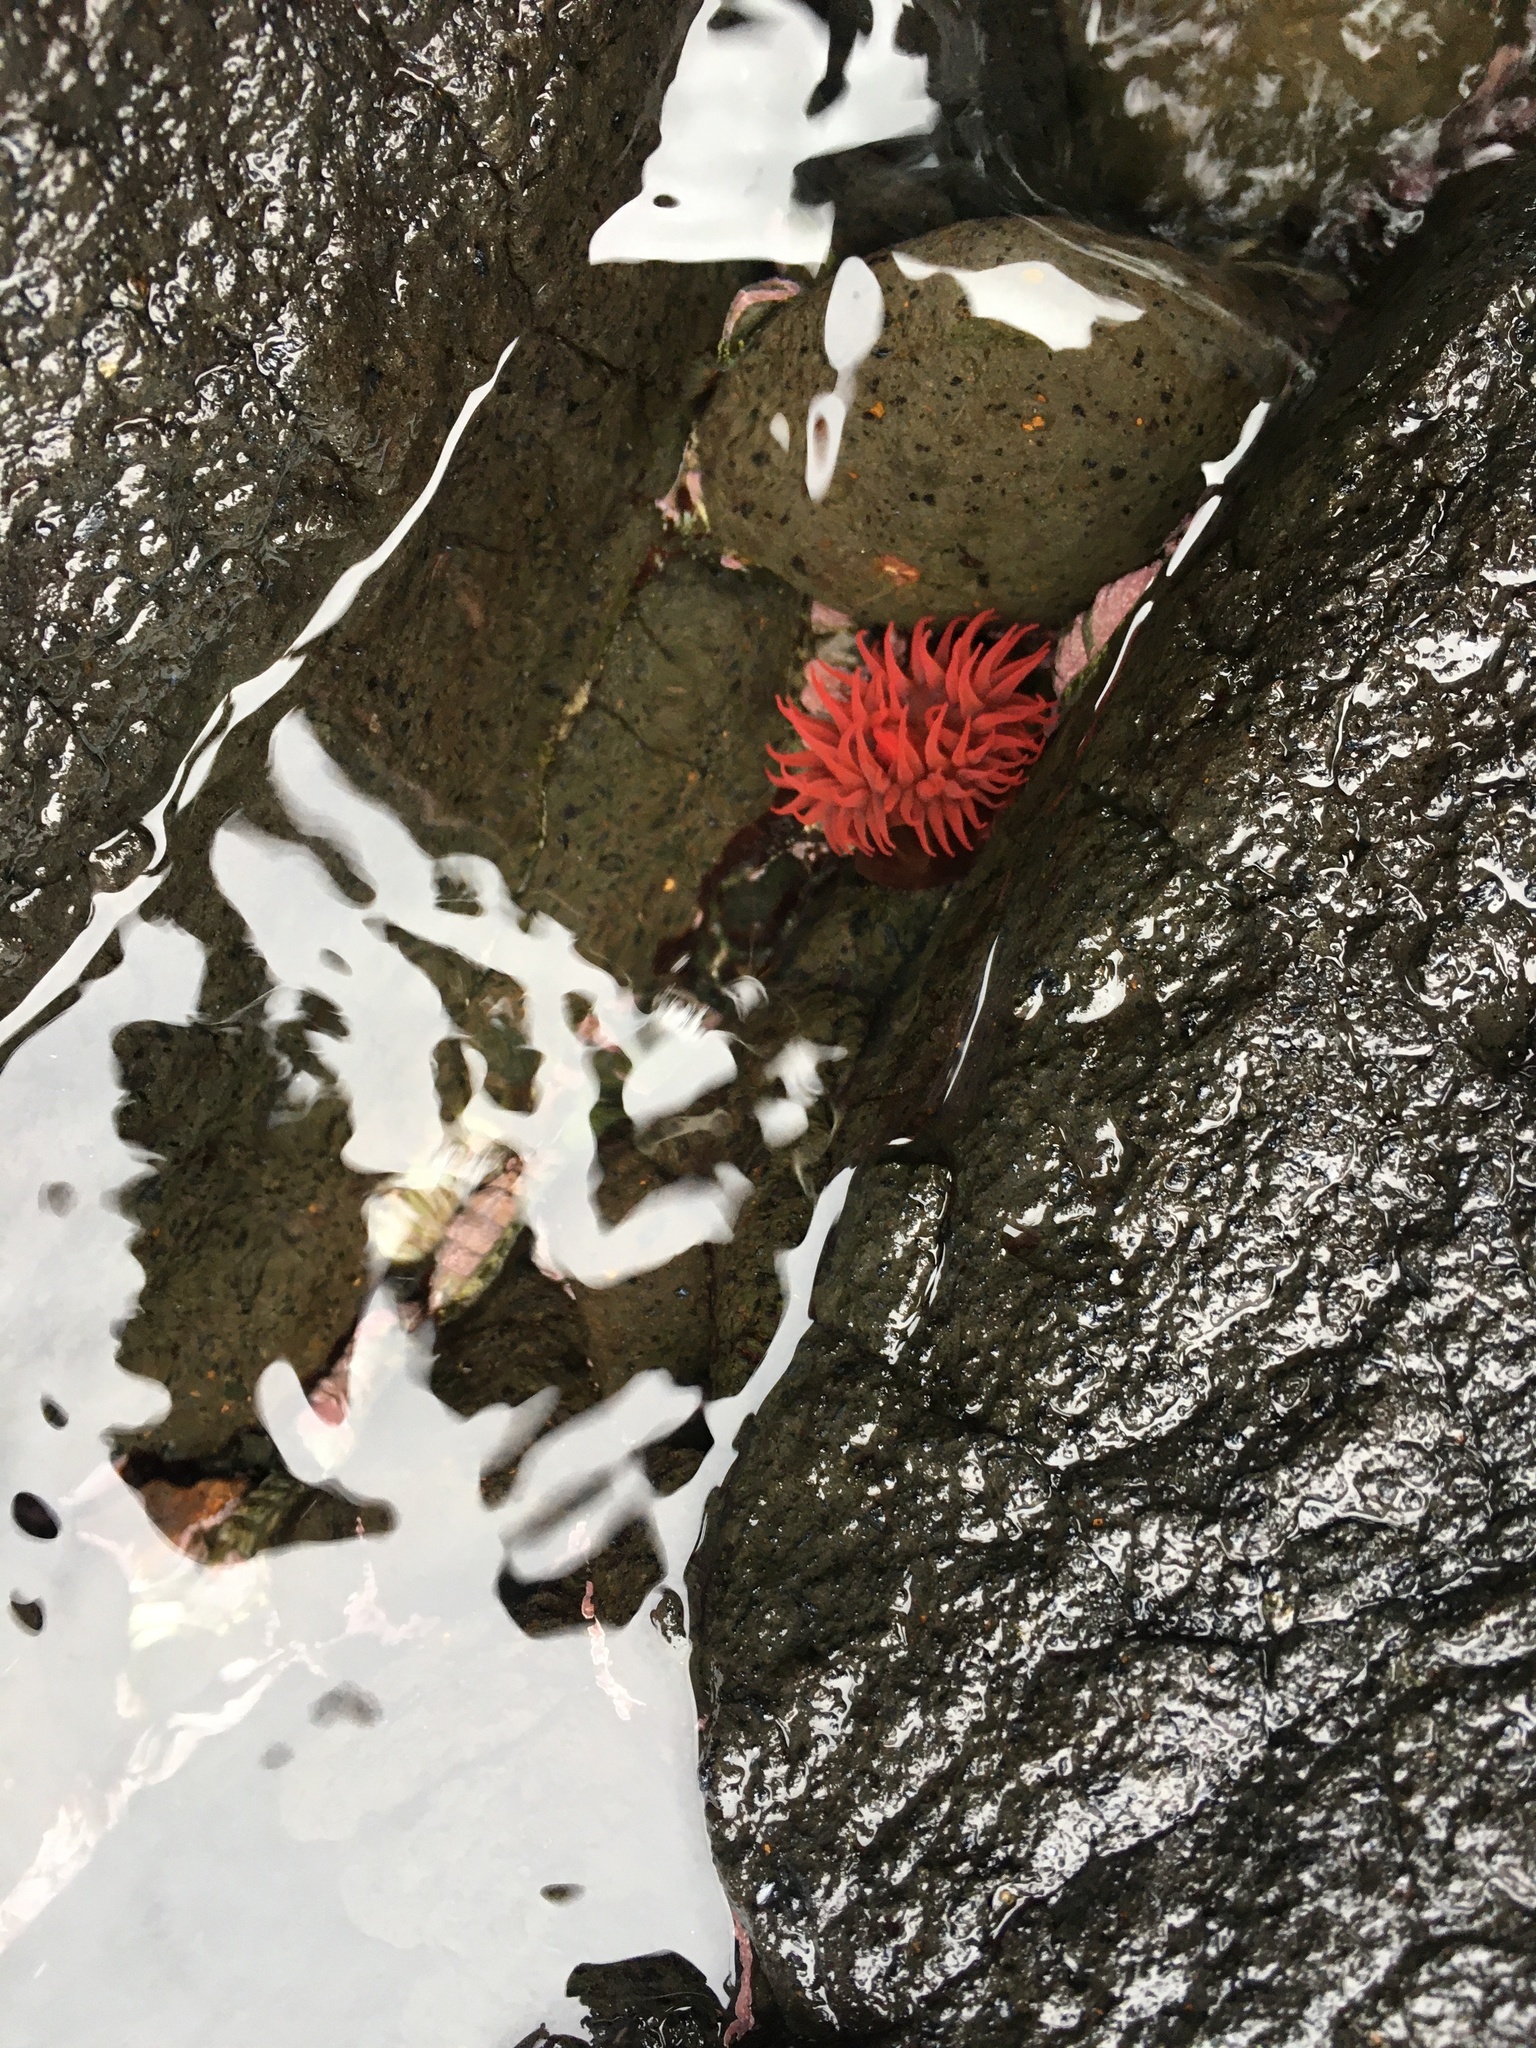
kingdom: Animalia
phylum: Cnidaria
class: Anthozoa
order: Actiniaria
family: Actiniidae
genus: Actinia
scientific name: Actinia tenebrosa
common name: Waratah anemone
